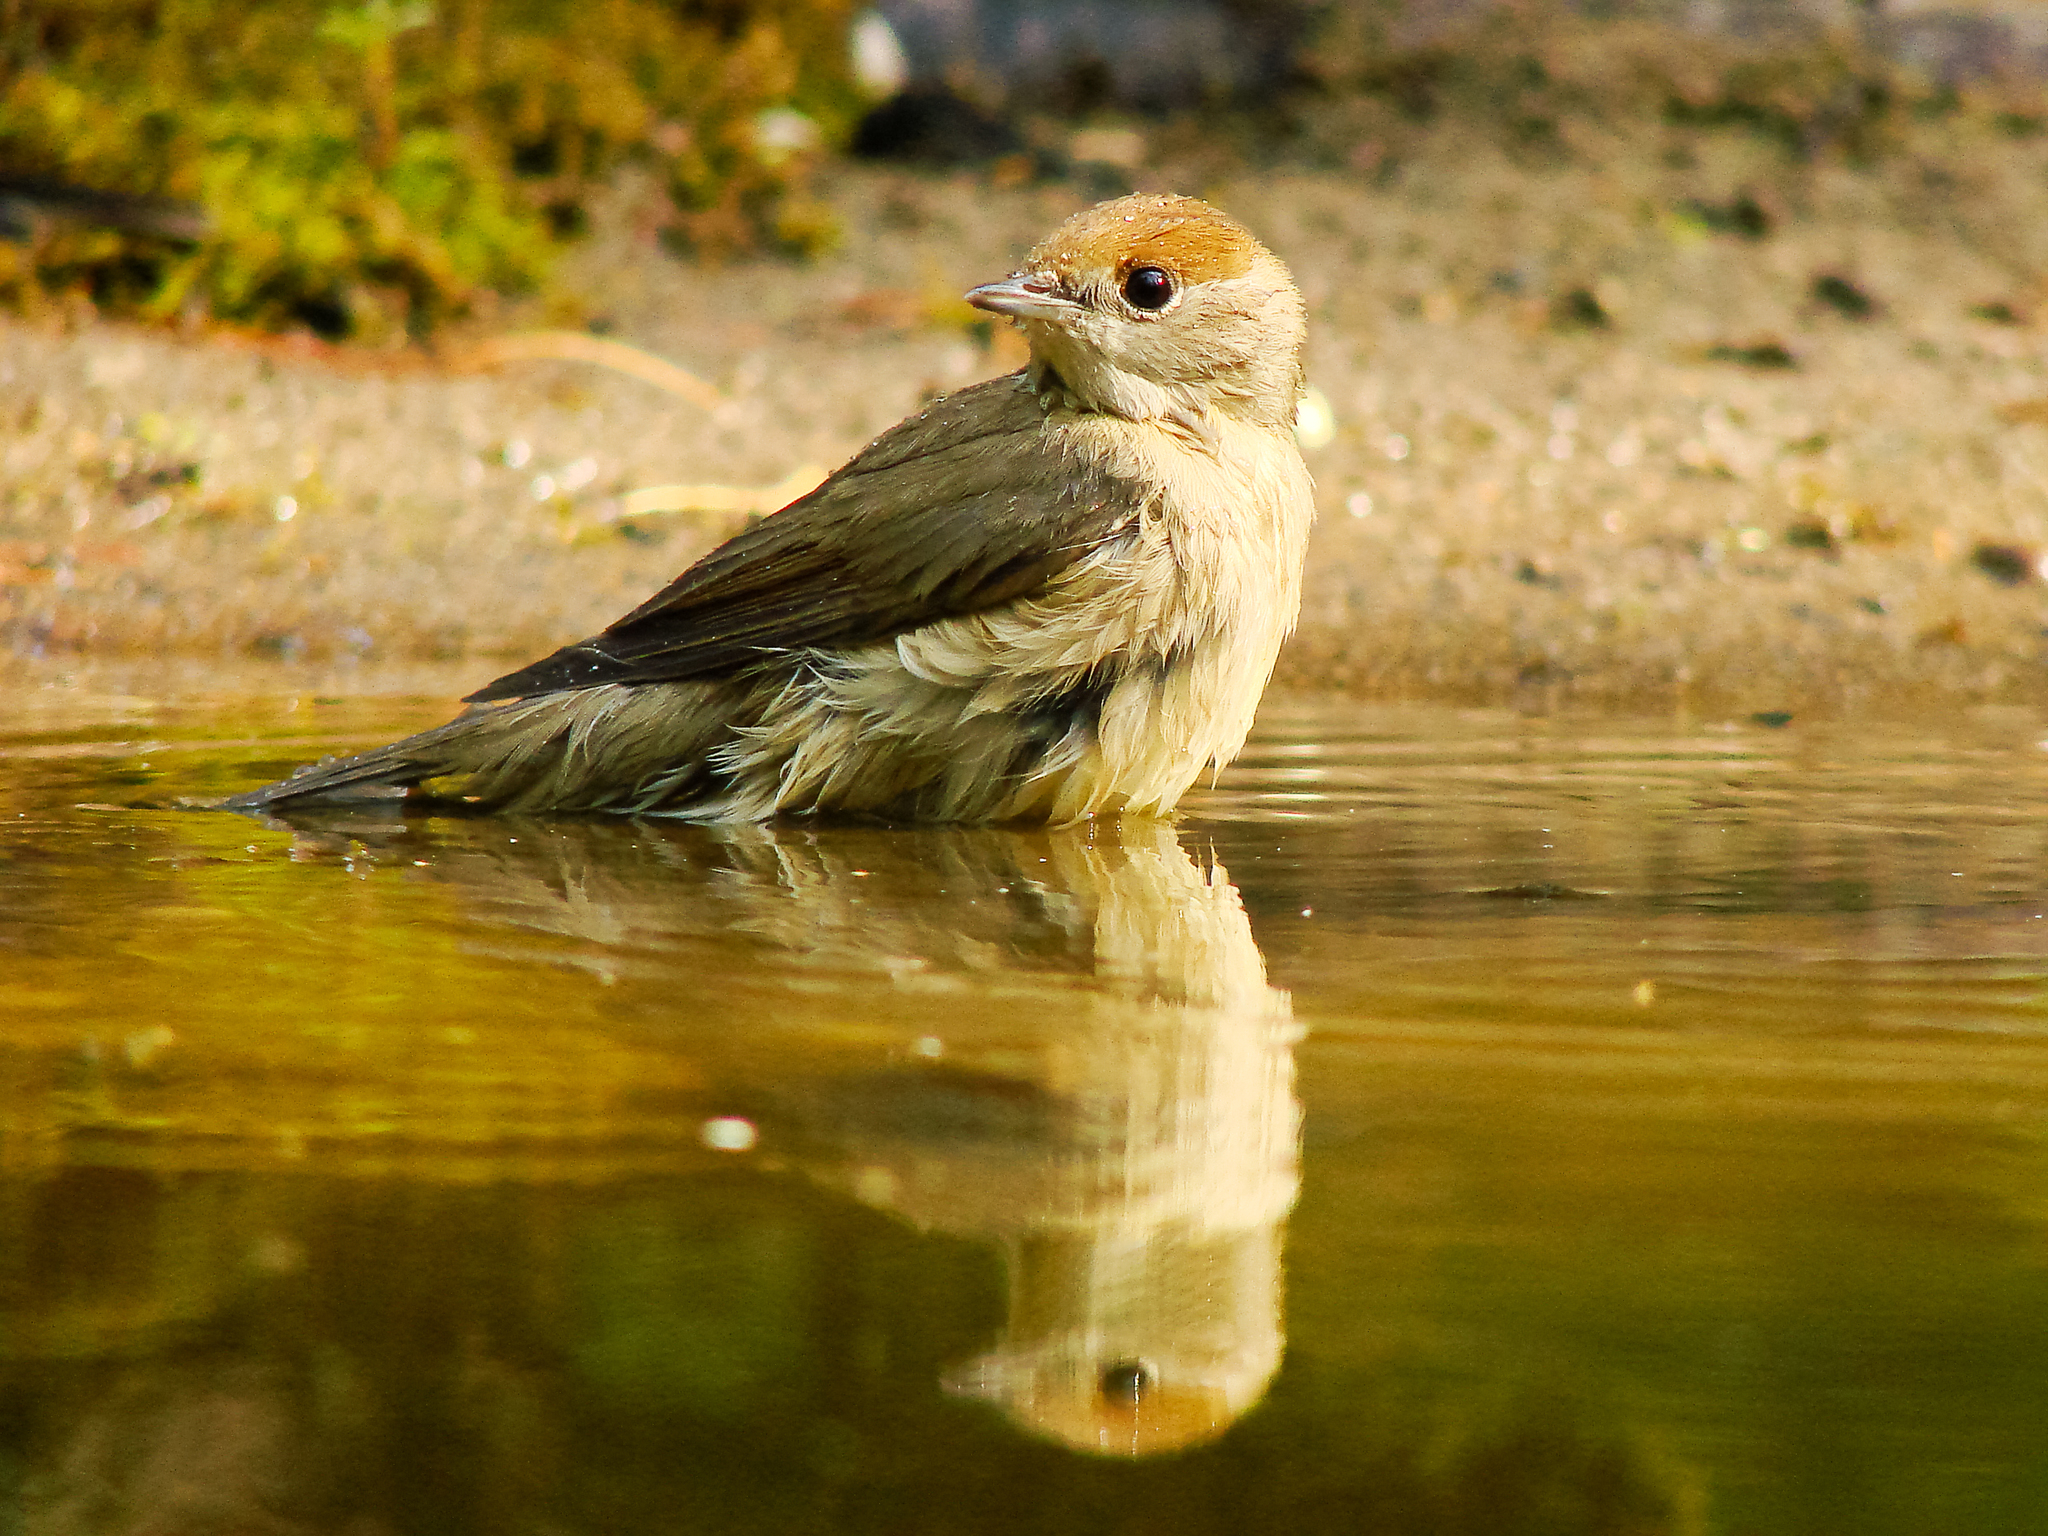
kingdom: Animalia
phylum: Chordata
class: Aves
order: Passeriformes
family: Sylviidae
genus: Sylvia
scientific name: Sylvia atricapilla
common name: Eurasian blackcap
